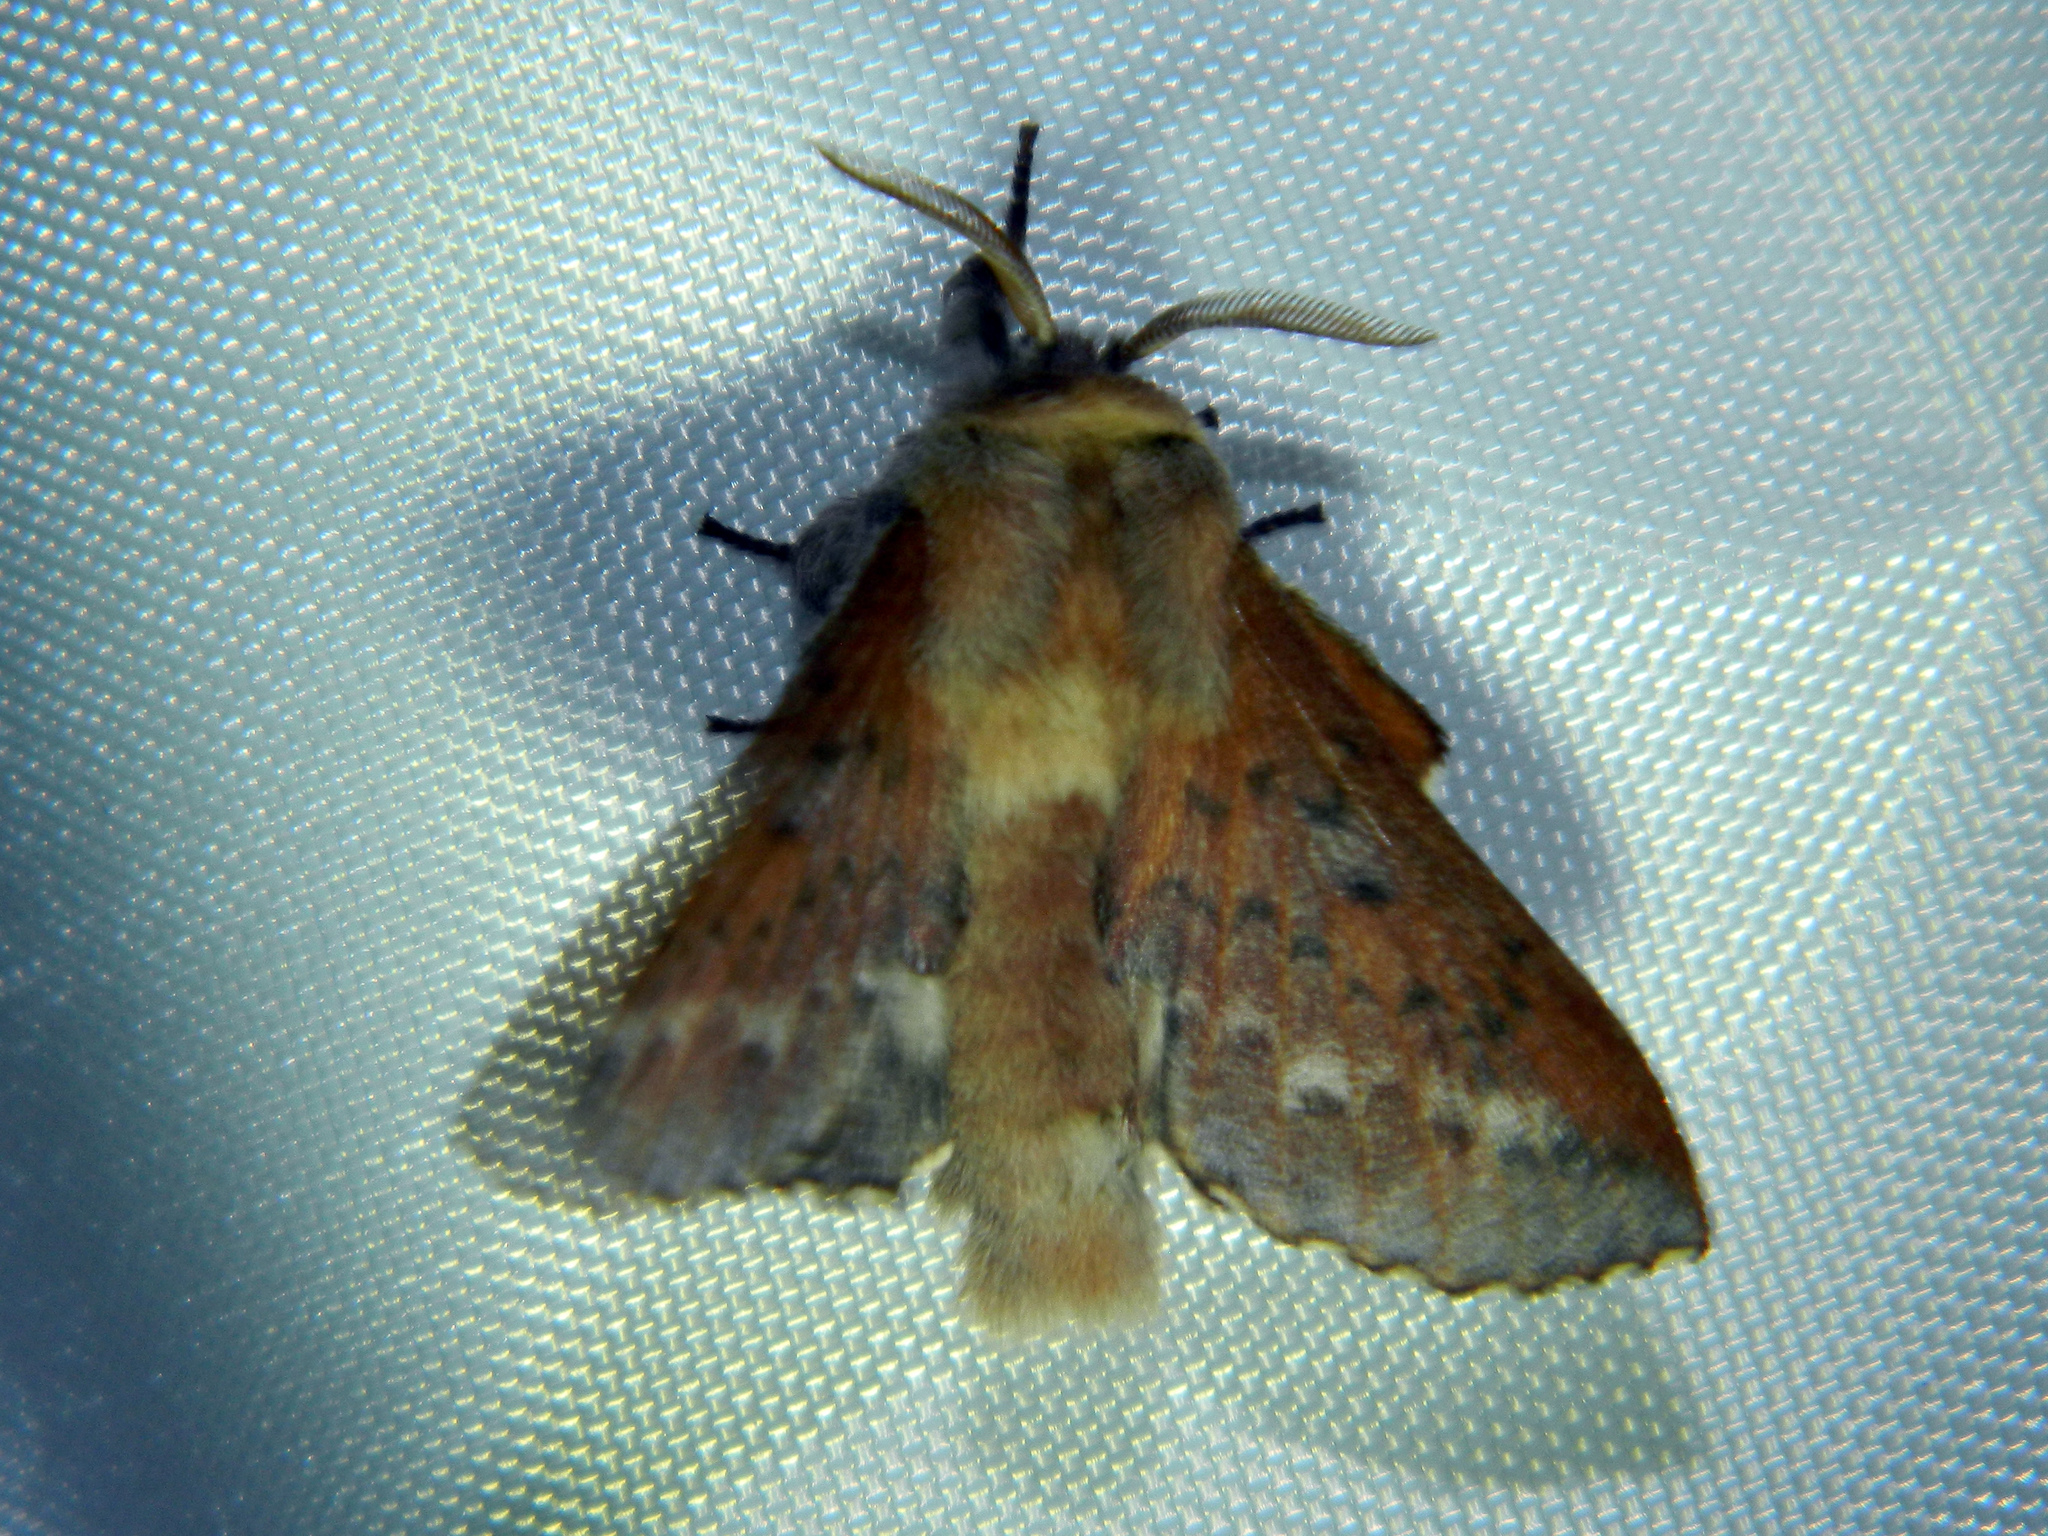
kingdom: Animalia
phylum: Arthropoda
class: Insecta
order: Lepidoptera
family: Lasiocampidae
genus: Phyllodesma
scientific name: Phyllodesma americana
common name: American lappet moth
